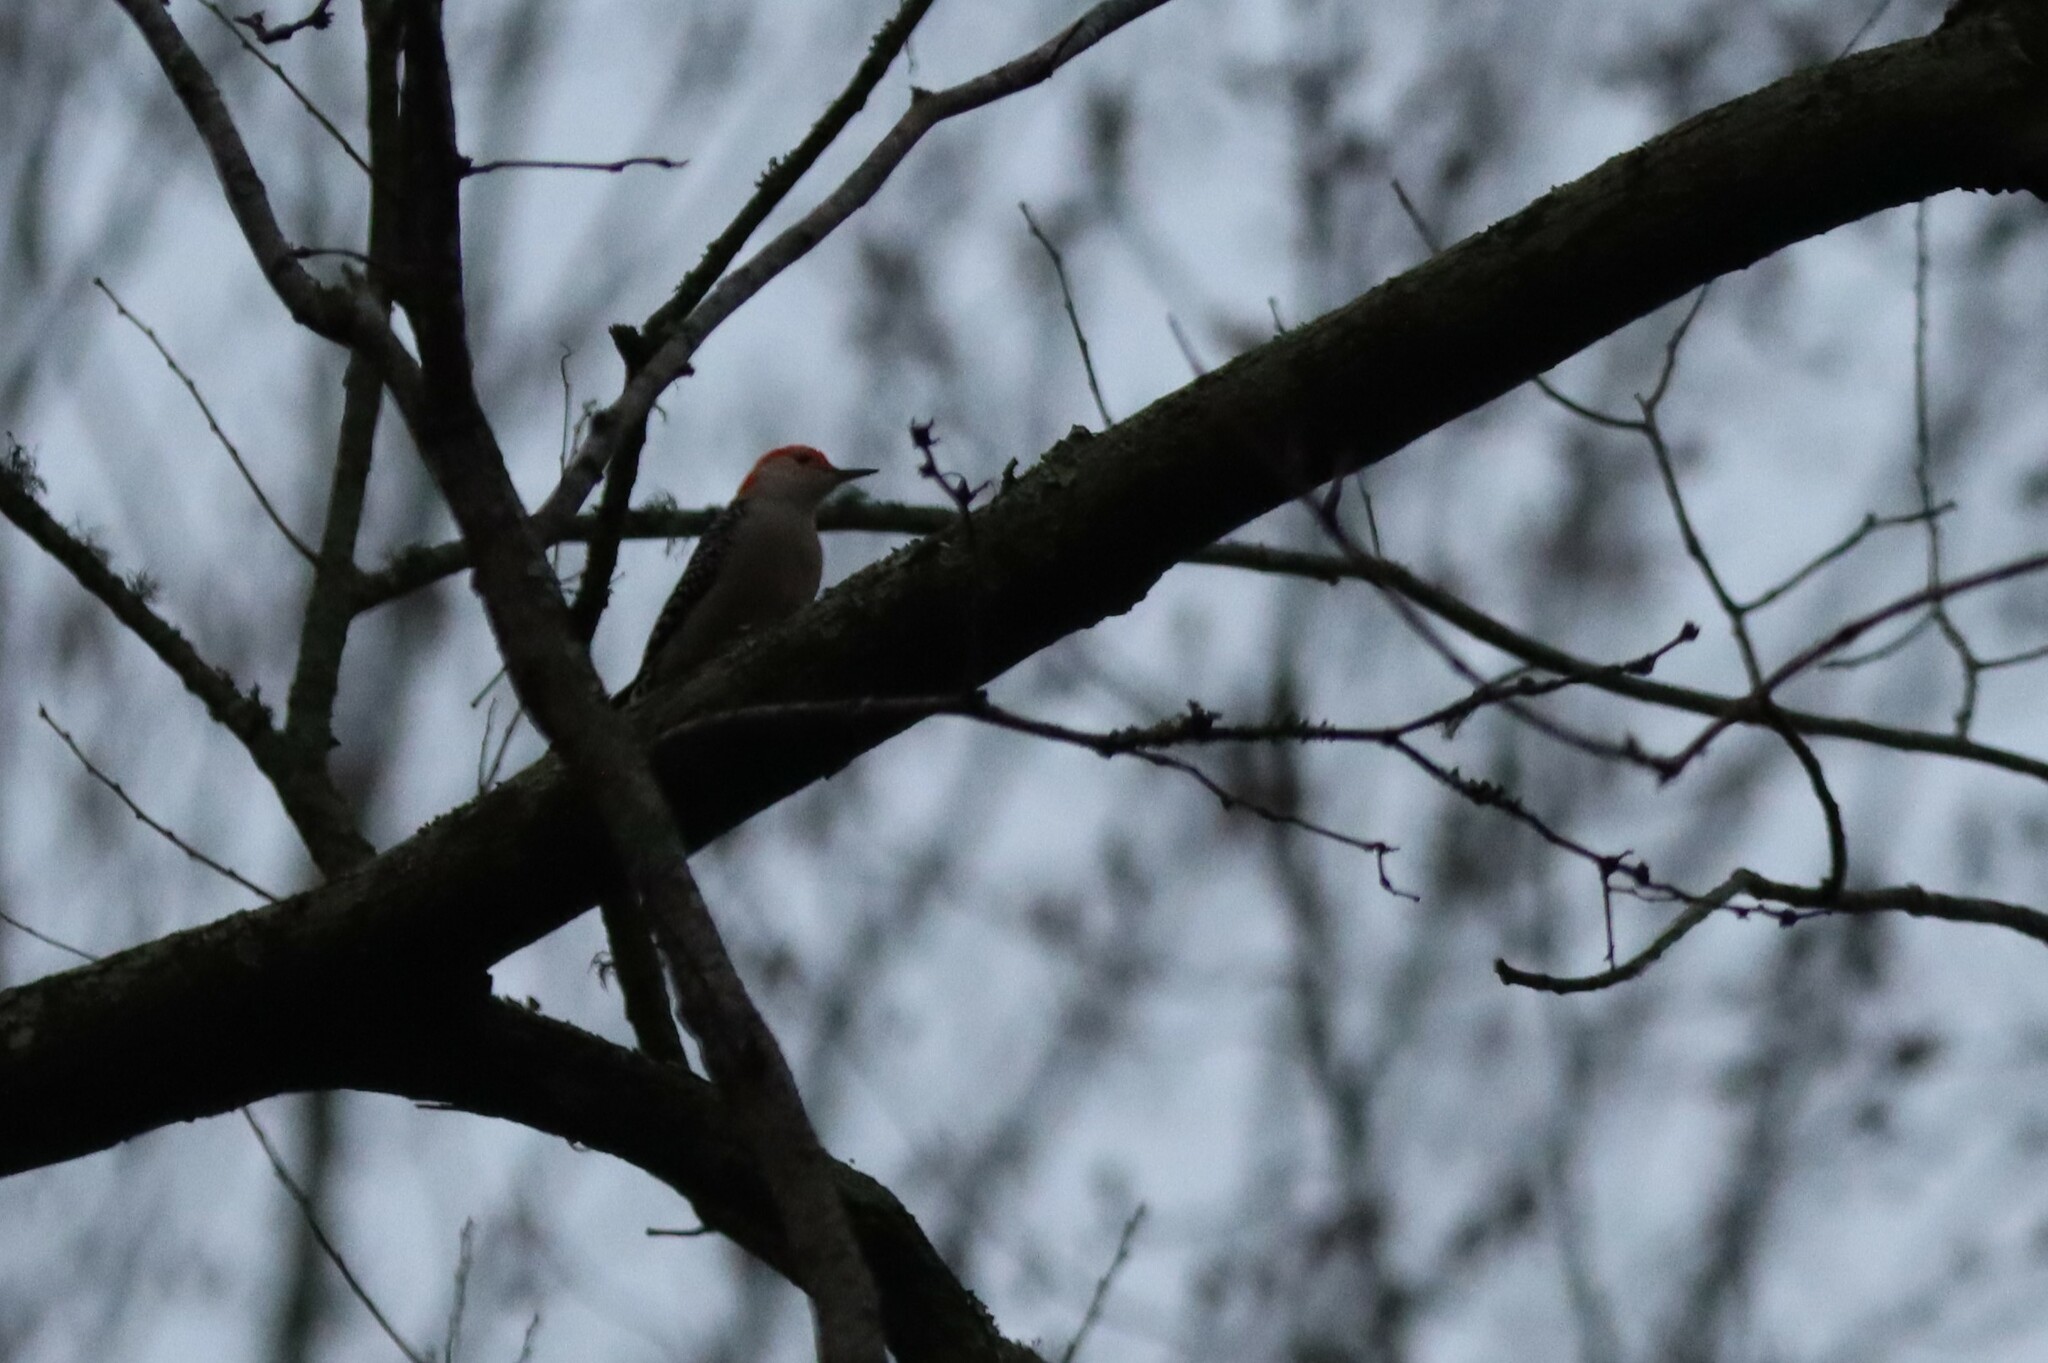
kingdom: Animalia
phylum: Chordata
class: Aves
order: Piciformes
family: Picidae
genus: Melanerpes
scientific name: Melanerpes carolinus
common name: Red-bellied woodpecker
